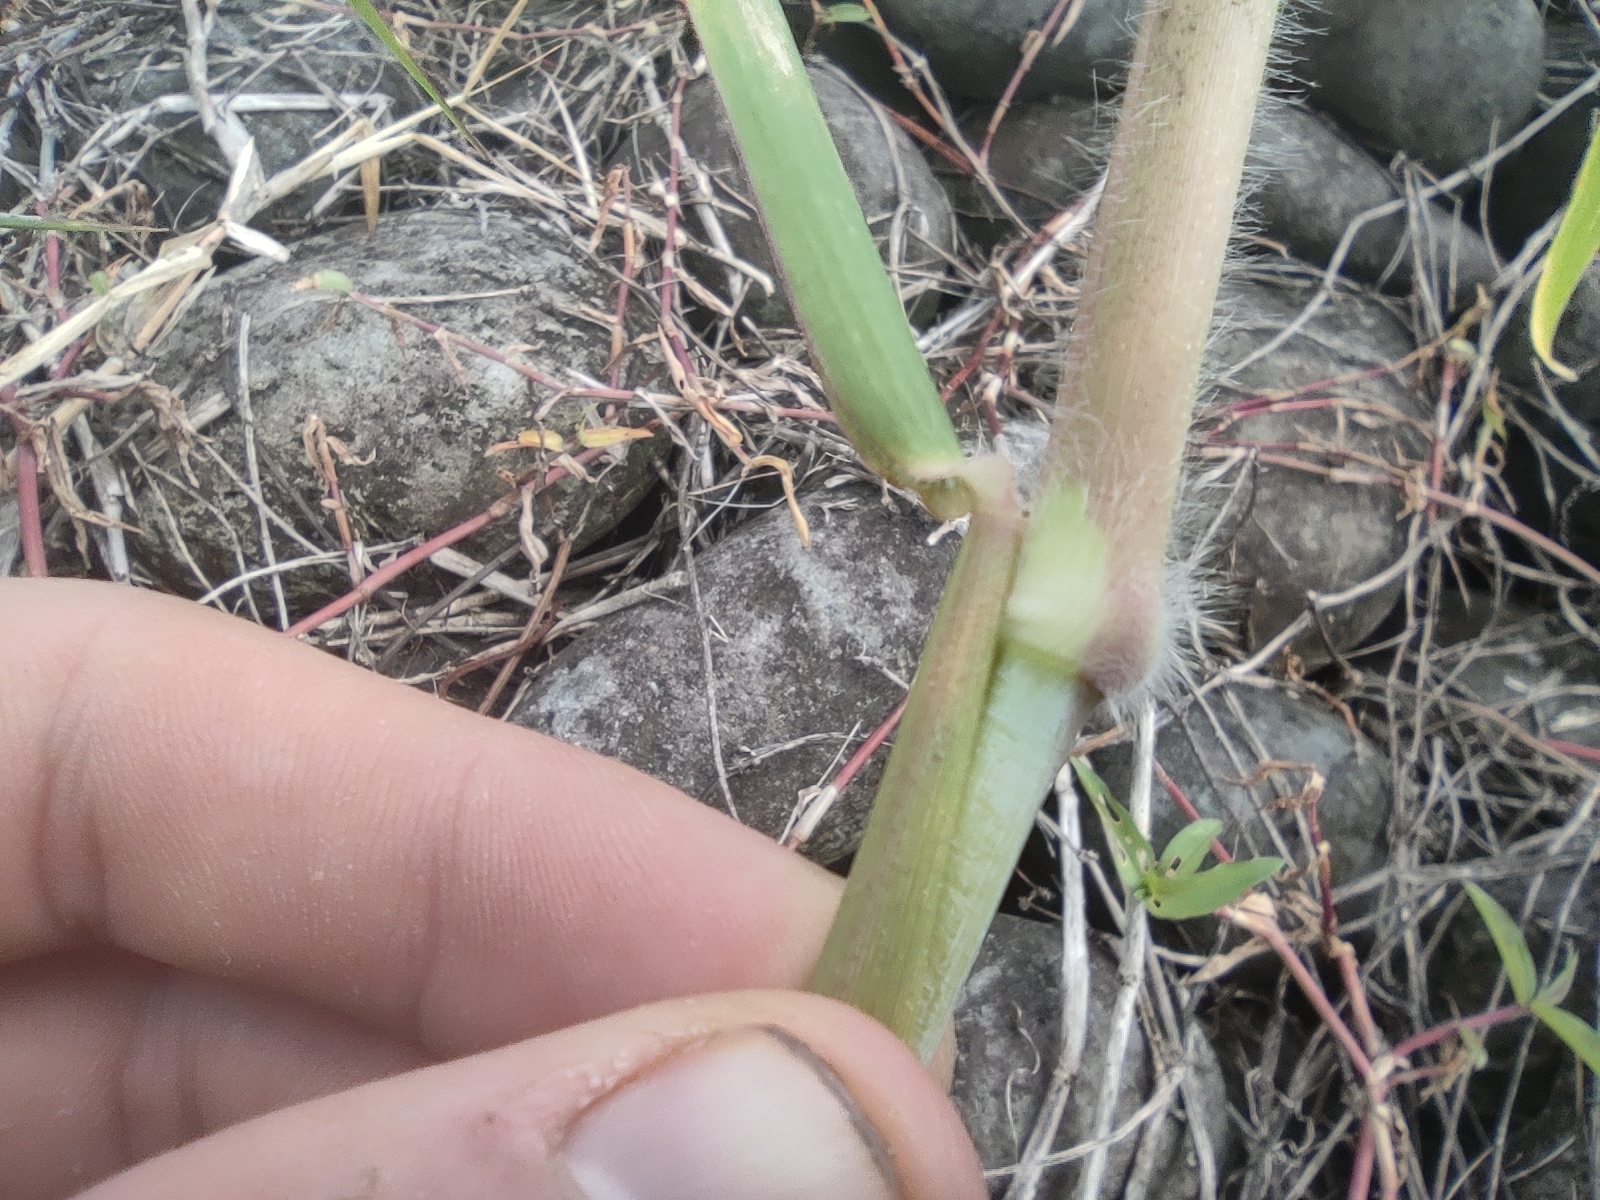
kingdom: Plantae
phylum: Tracheophyta
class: Liliopsida
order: Poales
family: Poaceae
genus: Urochloa
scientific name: Urochloa mutica
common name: Para grass
